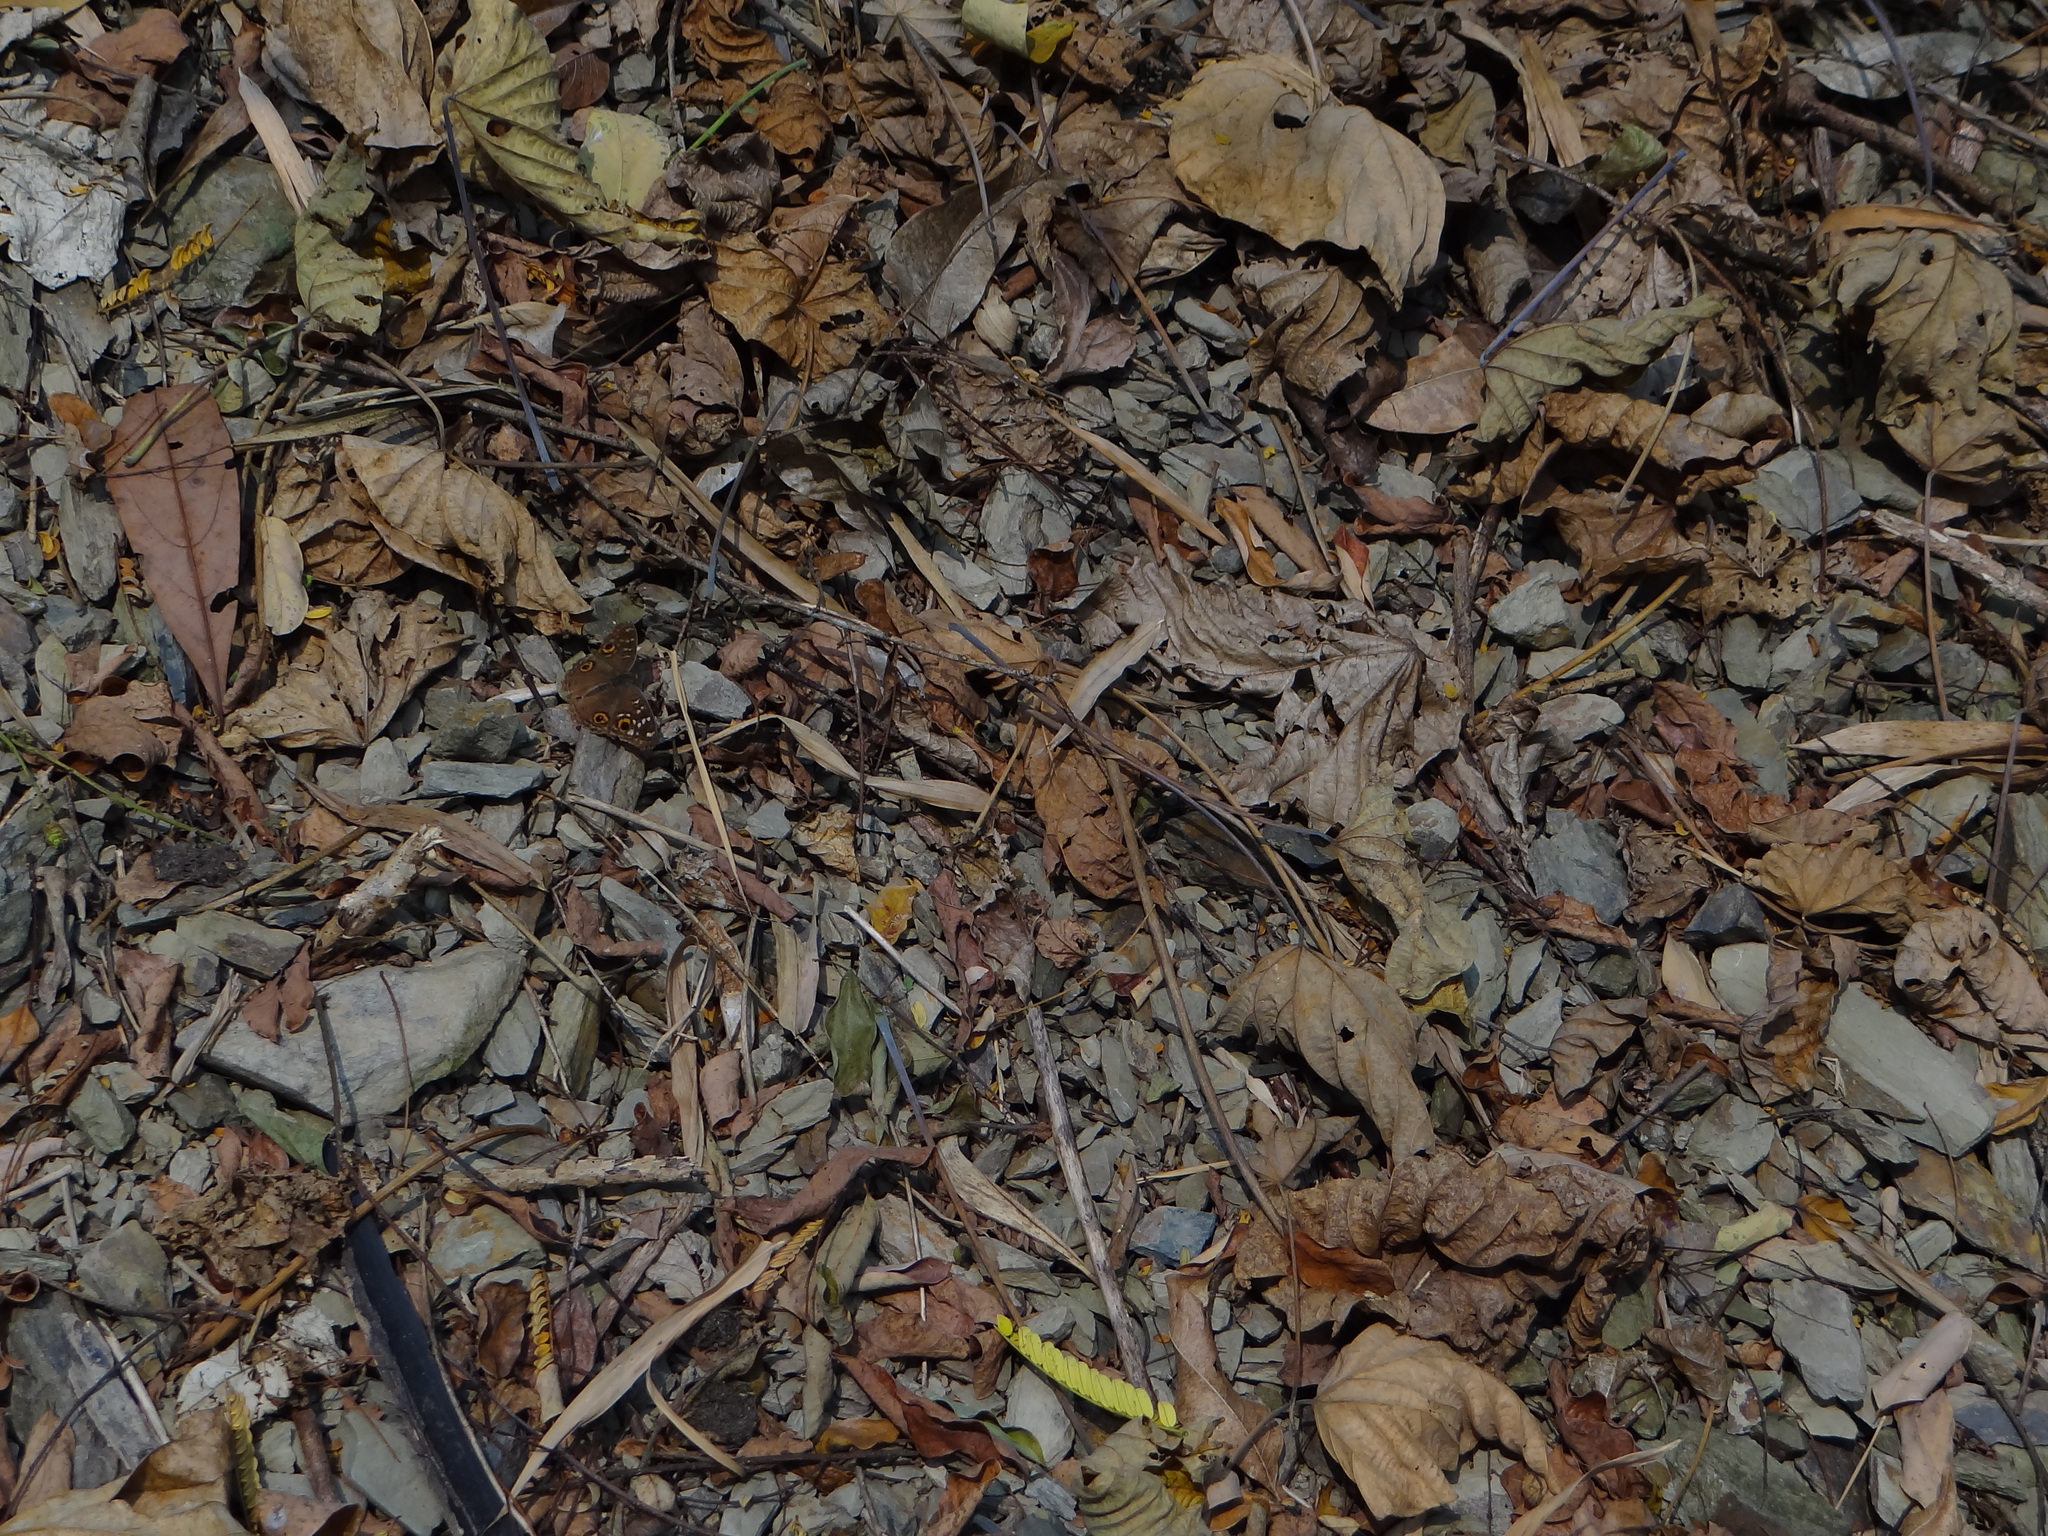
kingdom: Animalia
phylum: Arthropoda
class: Insecta
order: Lepidoptera
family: Nymphalidae
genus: Junonia
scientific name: Junonia lemonias
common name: Lemon pansy
